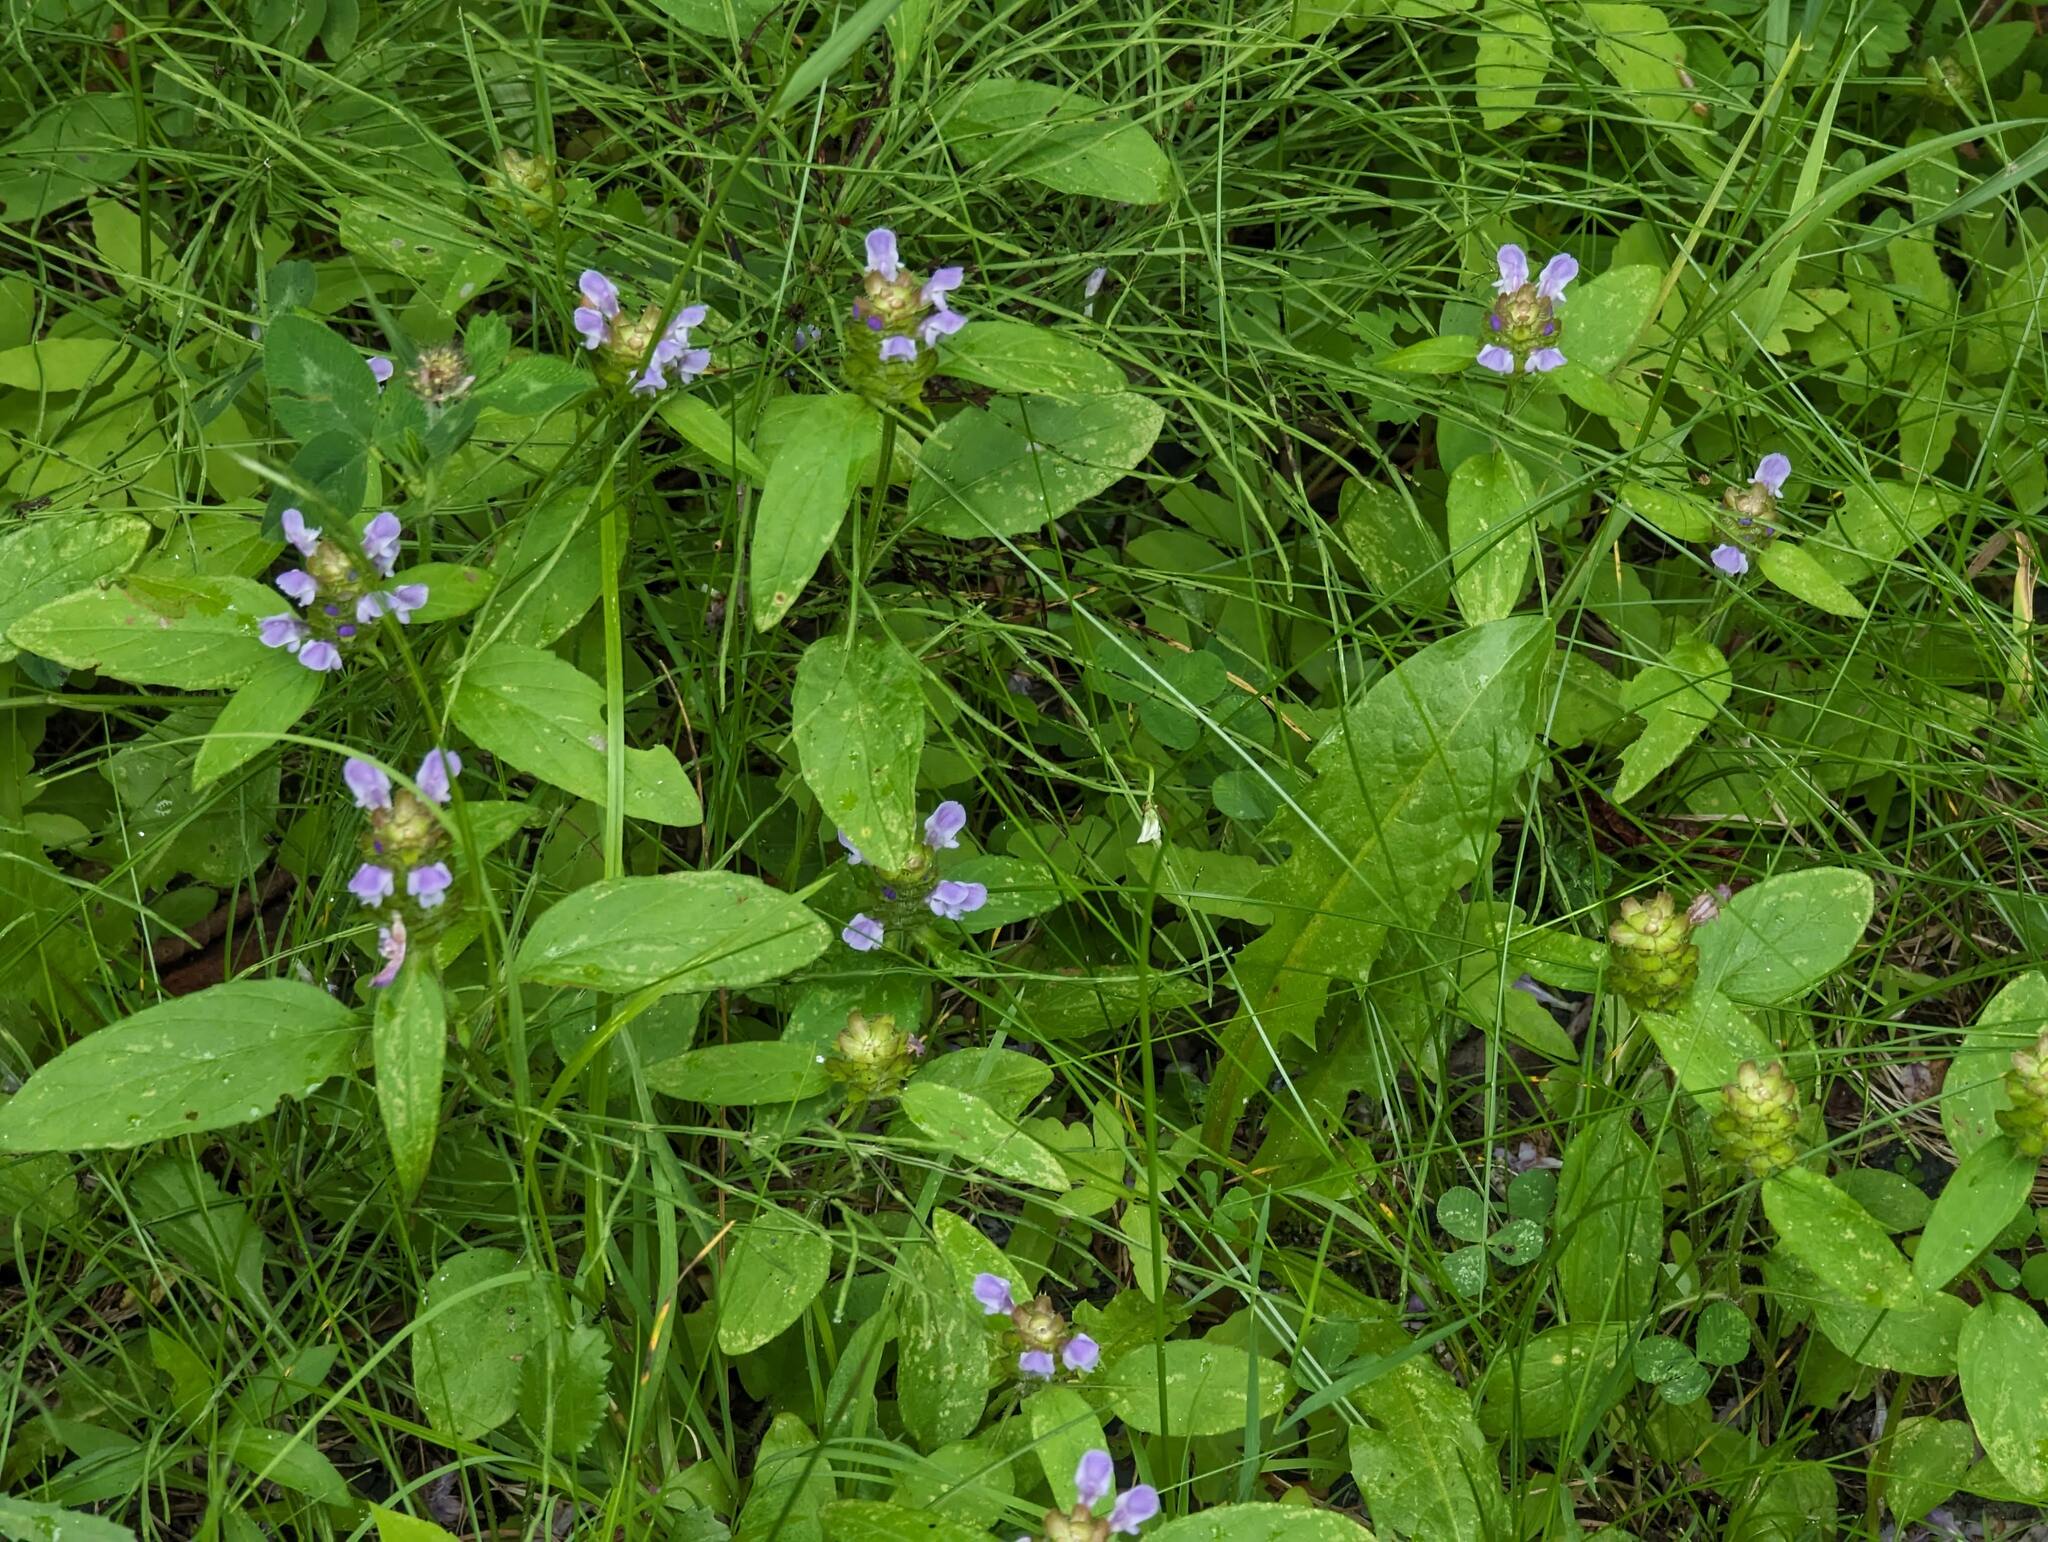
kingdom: Plantae
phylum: Tracheophyta
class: Magnoliopsida
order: Lamiales
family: Lamiaceae
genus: Prunella
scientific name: Prunella vulgaris
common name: Heal-all
